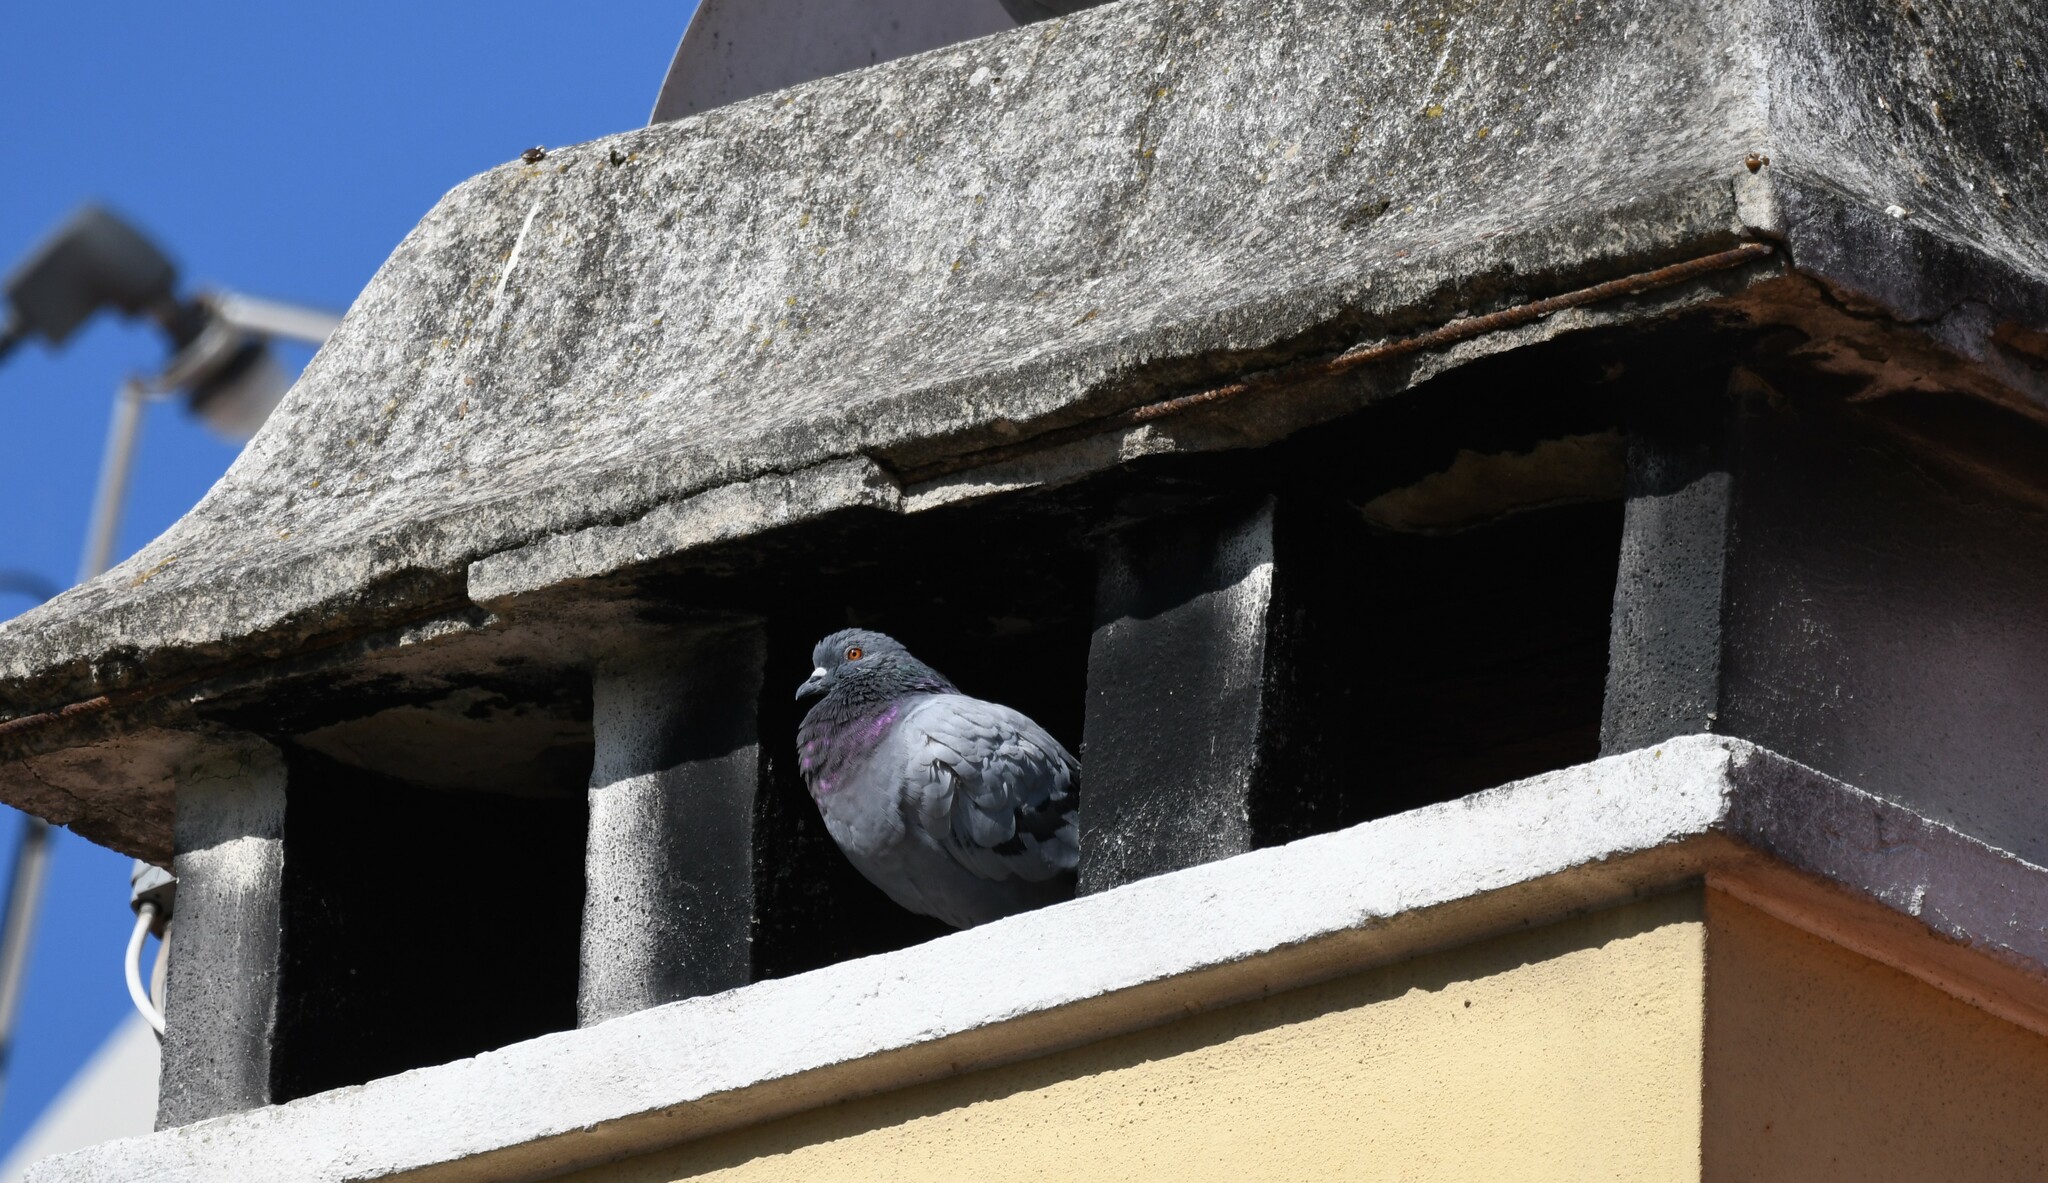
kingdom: Animalia
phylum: Chordata
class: Aves
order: Columbiformes
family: Columbidae
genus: Columba
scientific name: Columba livia
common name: Rock pigeon
